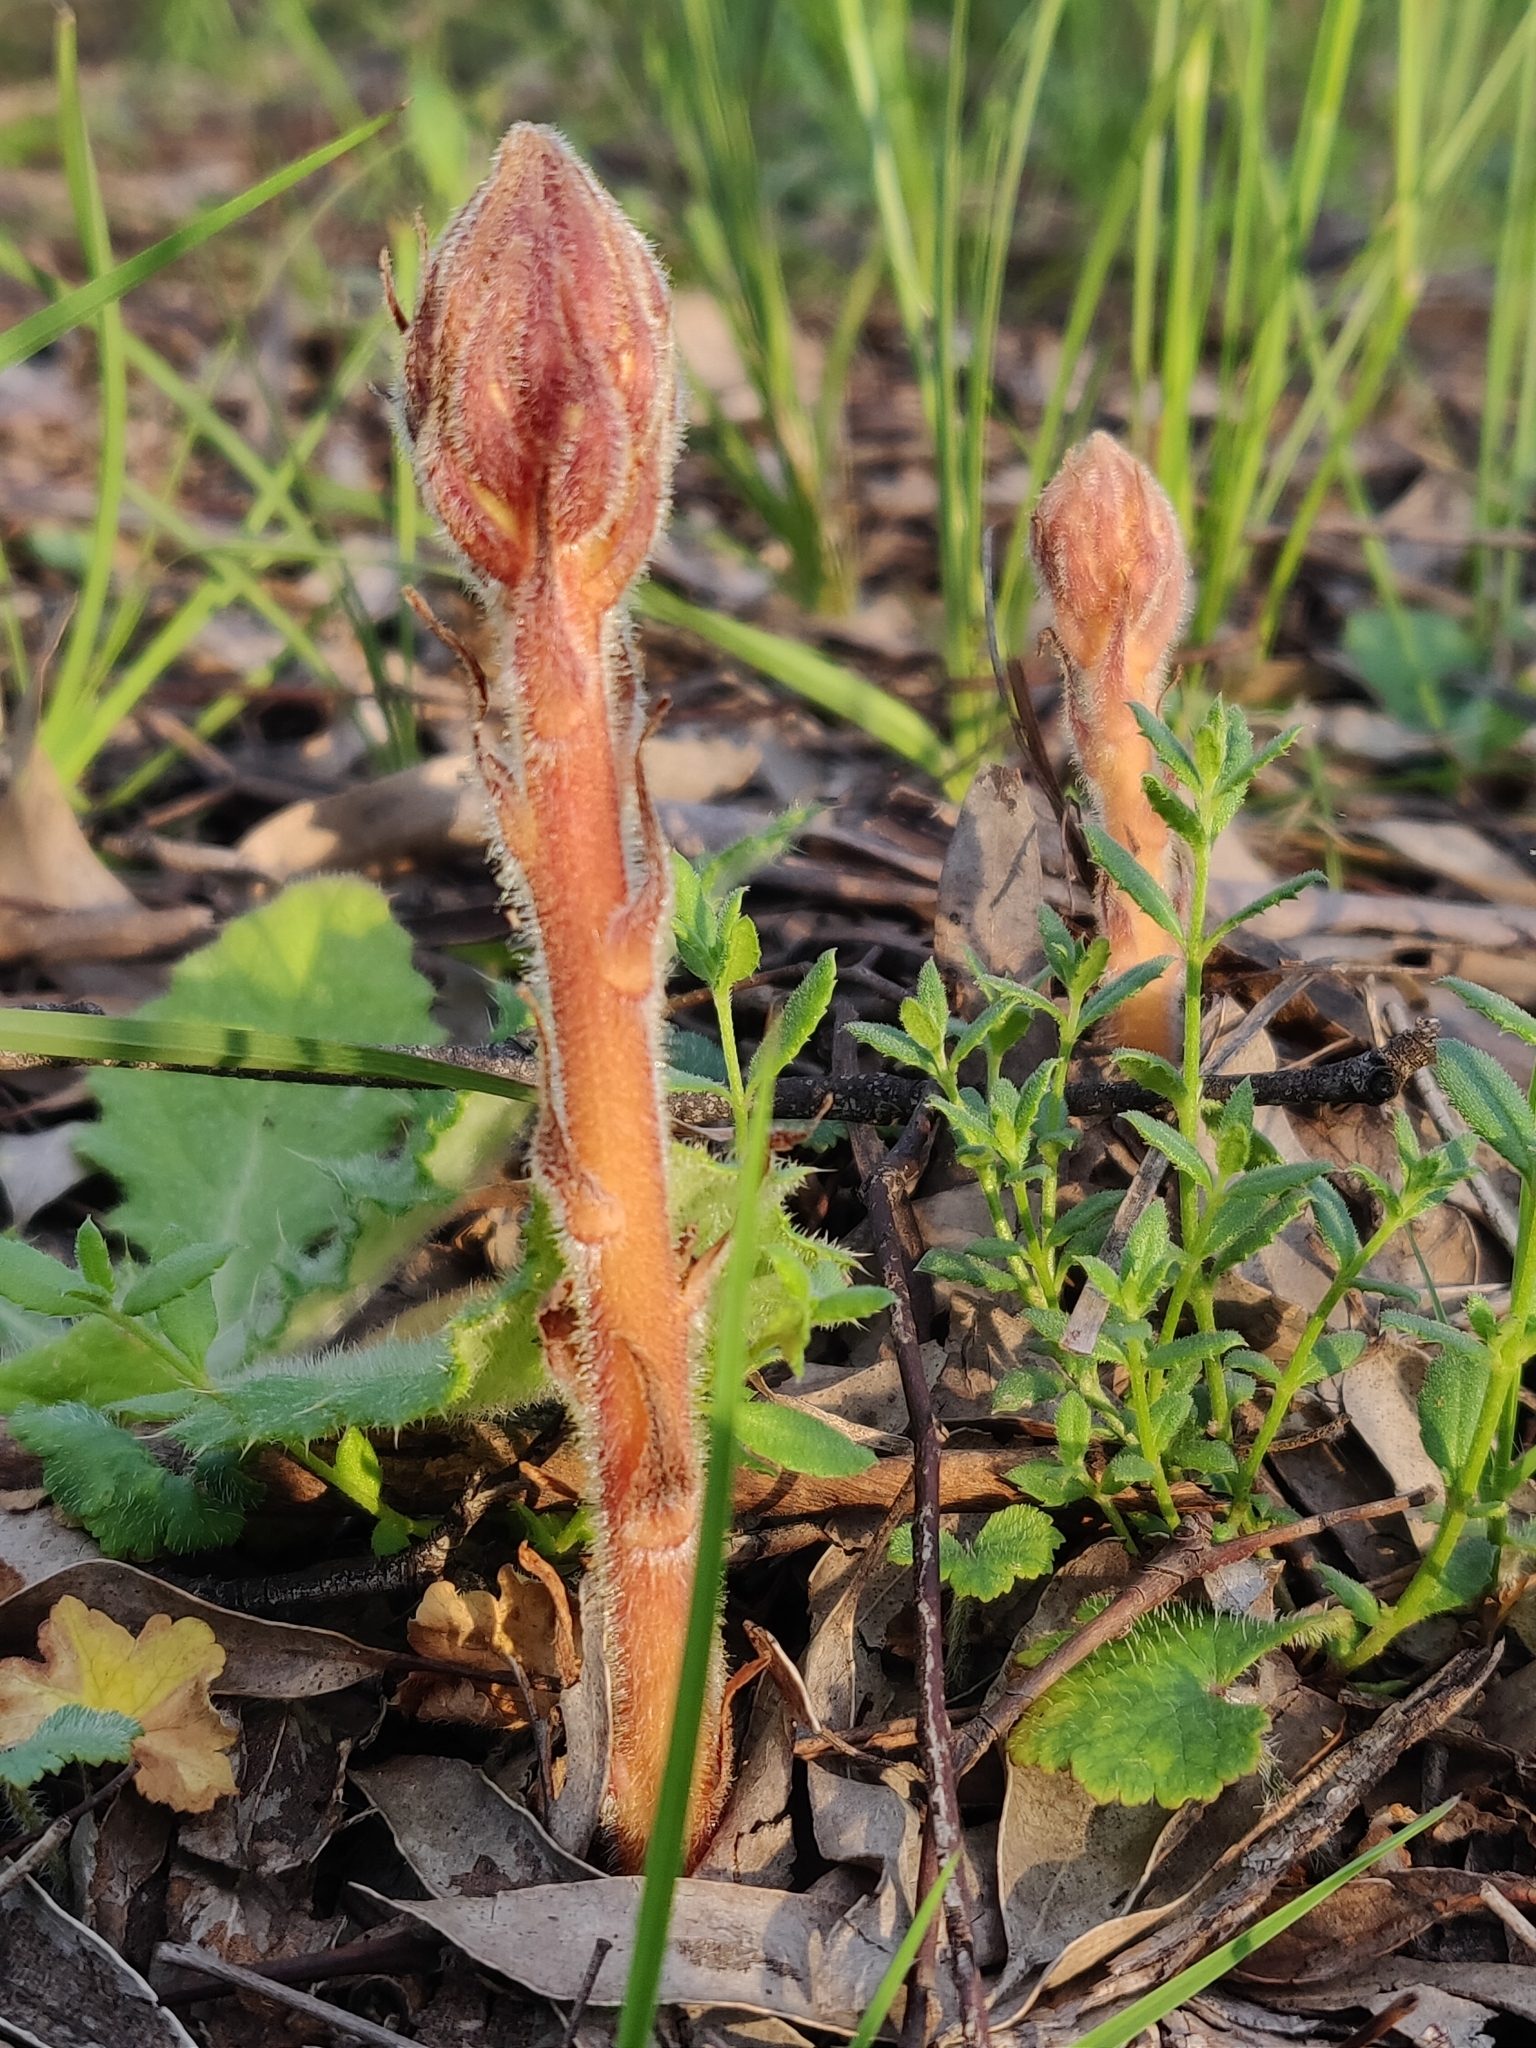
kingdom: Plantae
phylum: Tracheophyta
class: Magnoliopsida
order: Lamiales
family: Orobanchaceae
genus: Orobanche
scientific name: Orobanche minor
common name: Common broomrape
